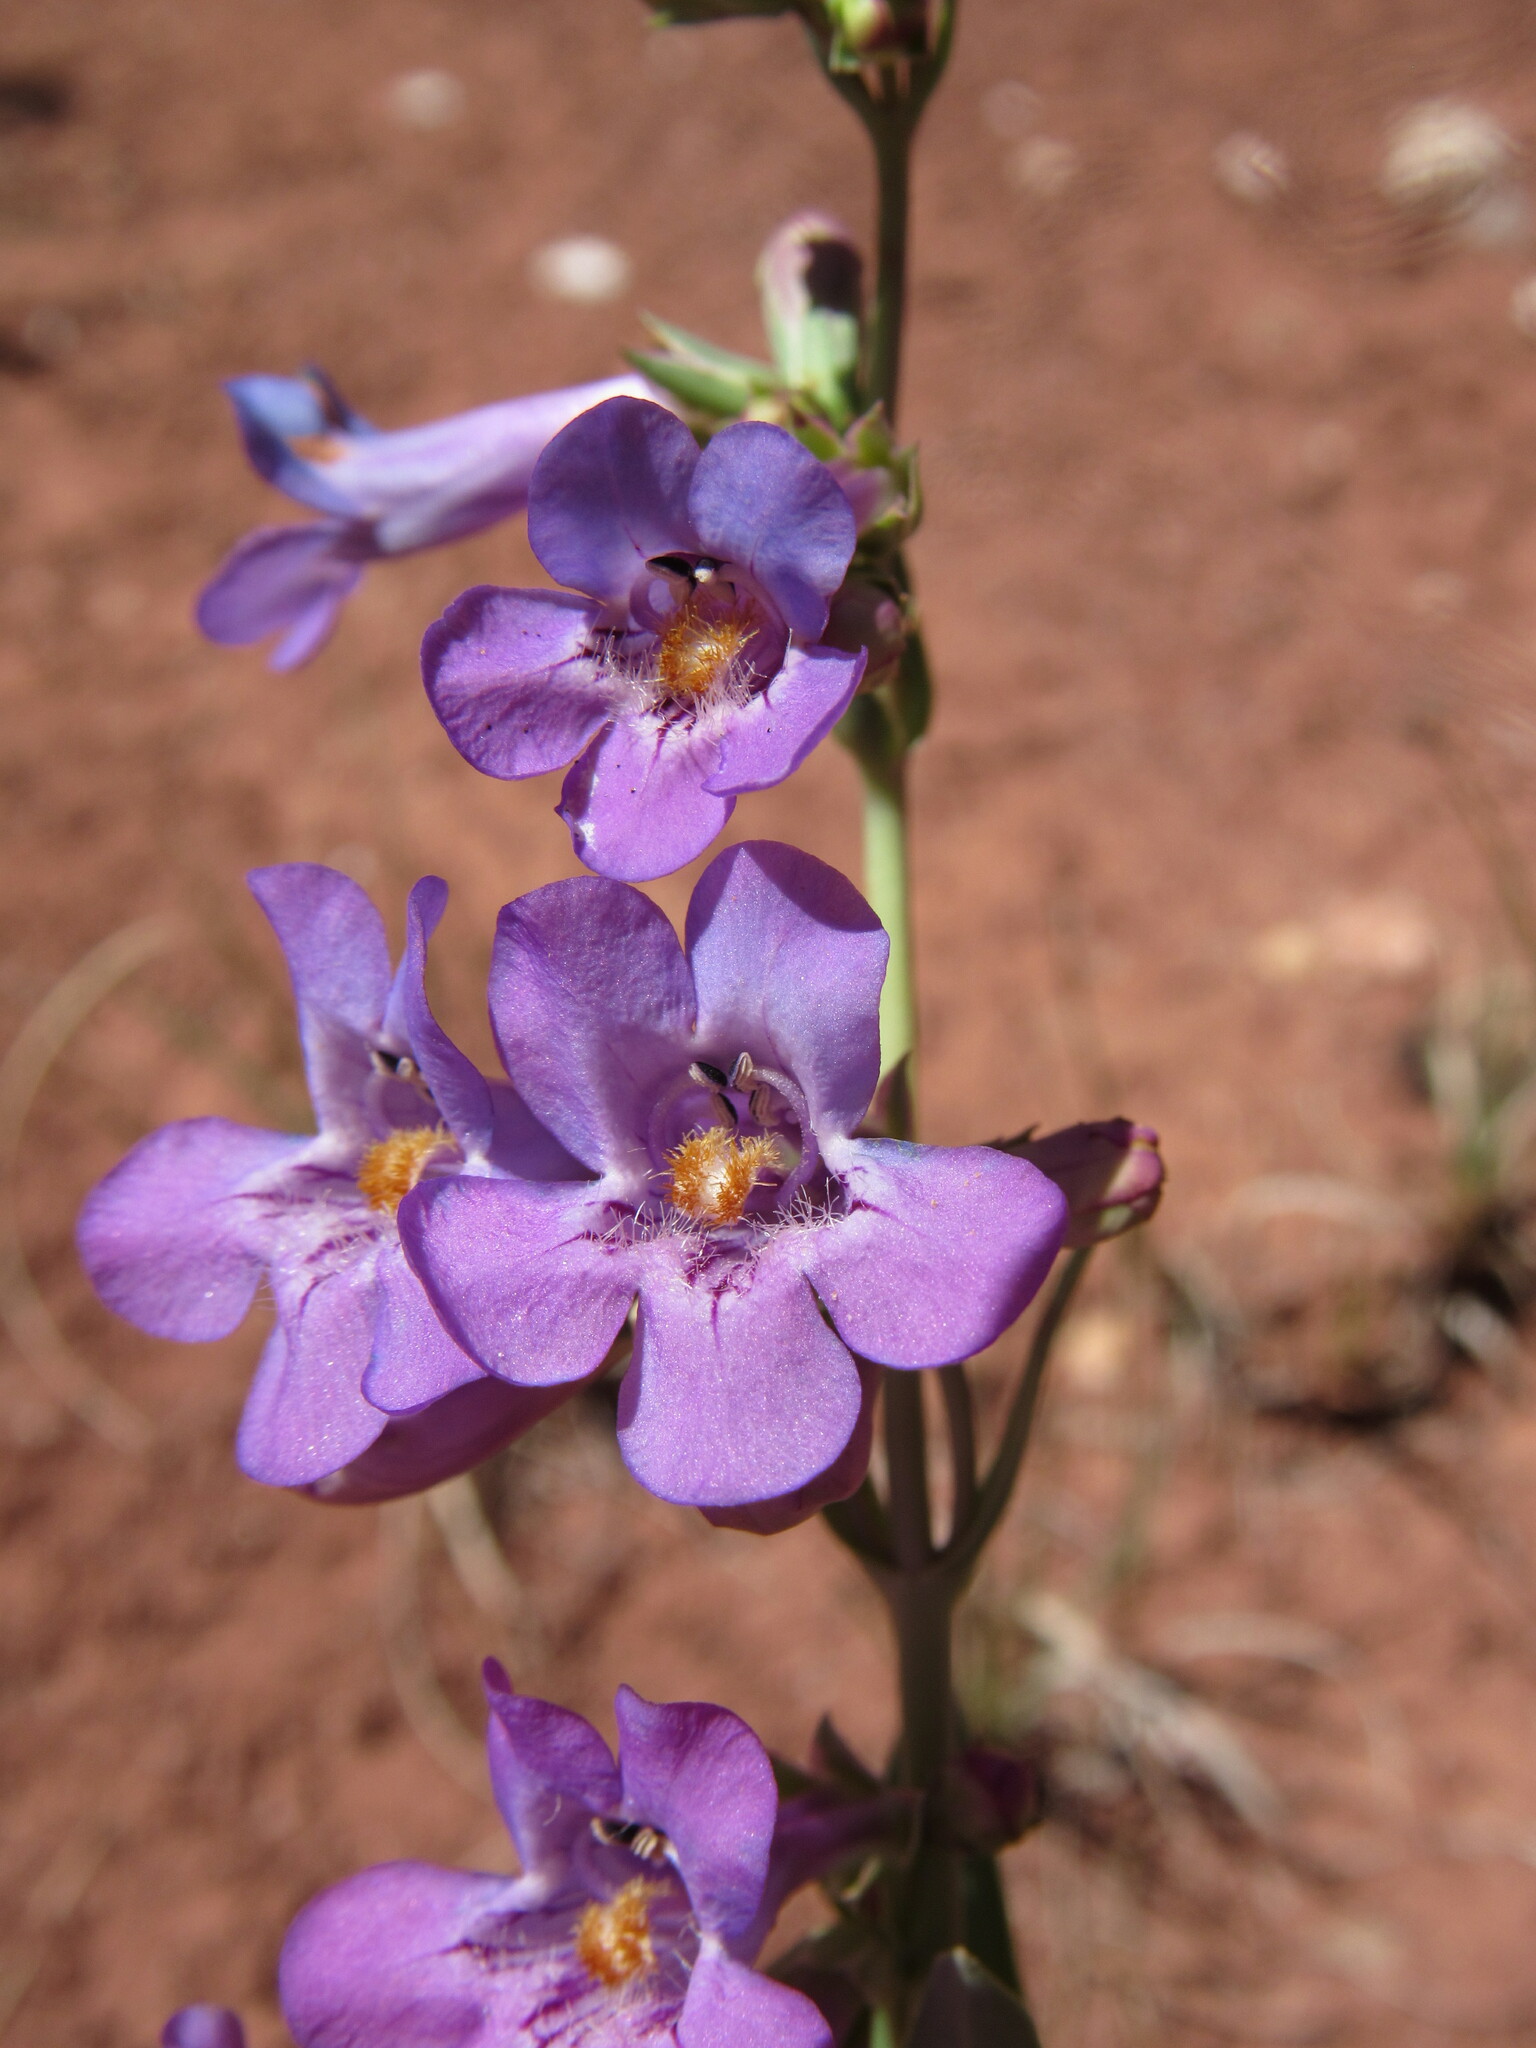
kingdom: Plantae
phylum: Tracheophyta
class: Magnoliopsida
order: Lamiales
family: Plantaginaceae
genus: Penstemon
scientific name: Penstemon secundiflorus
